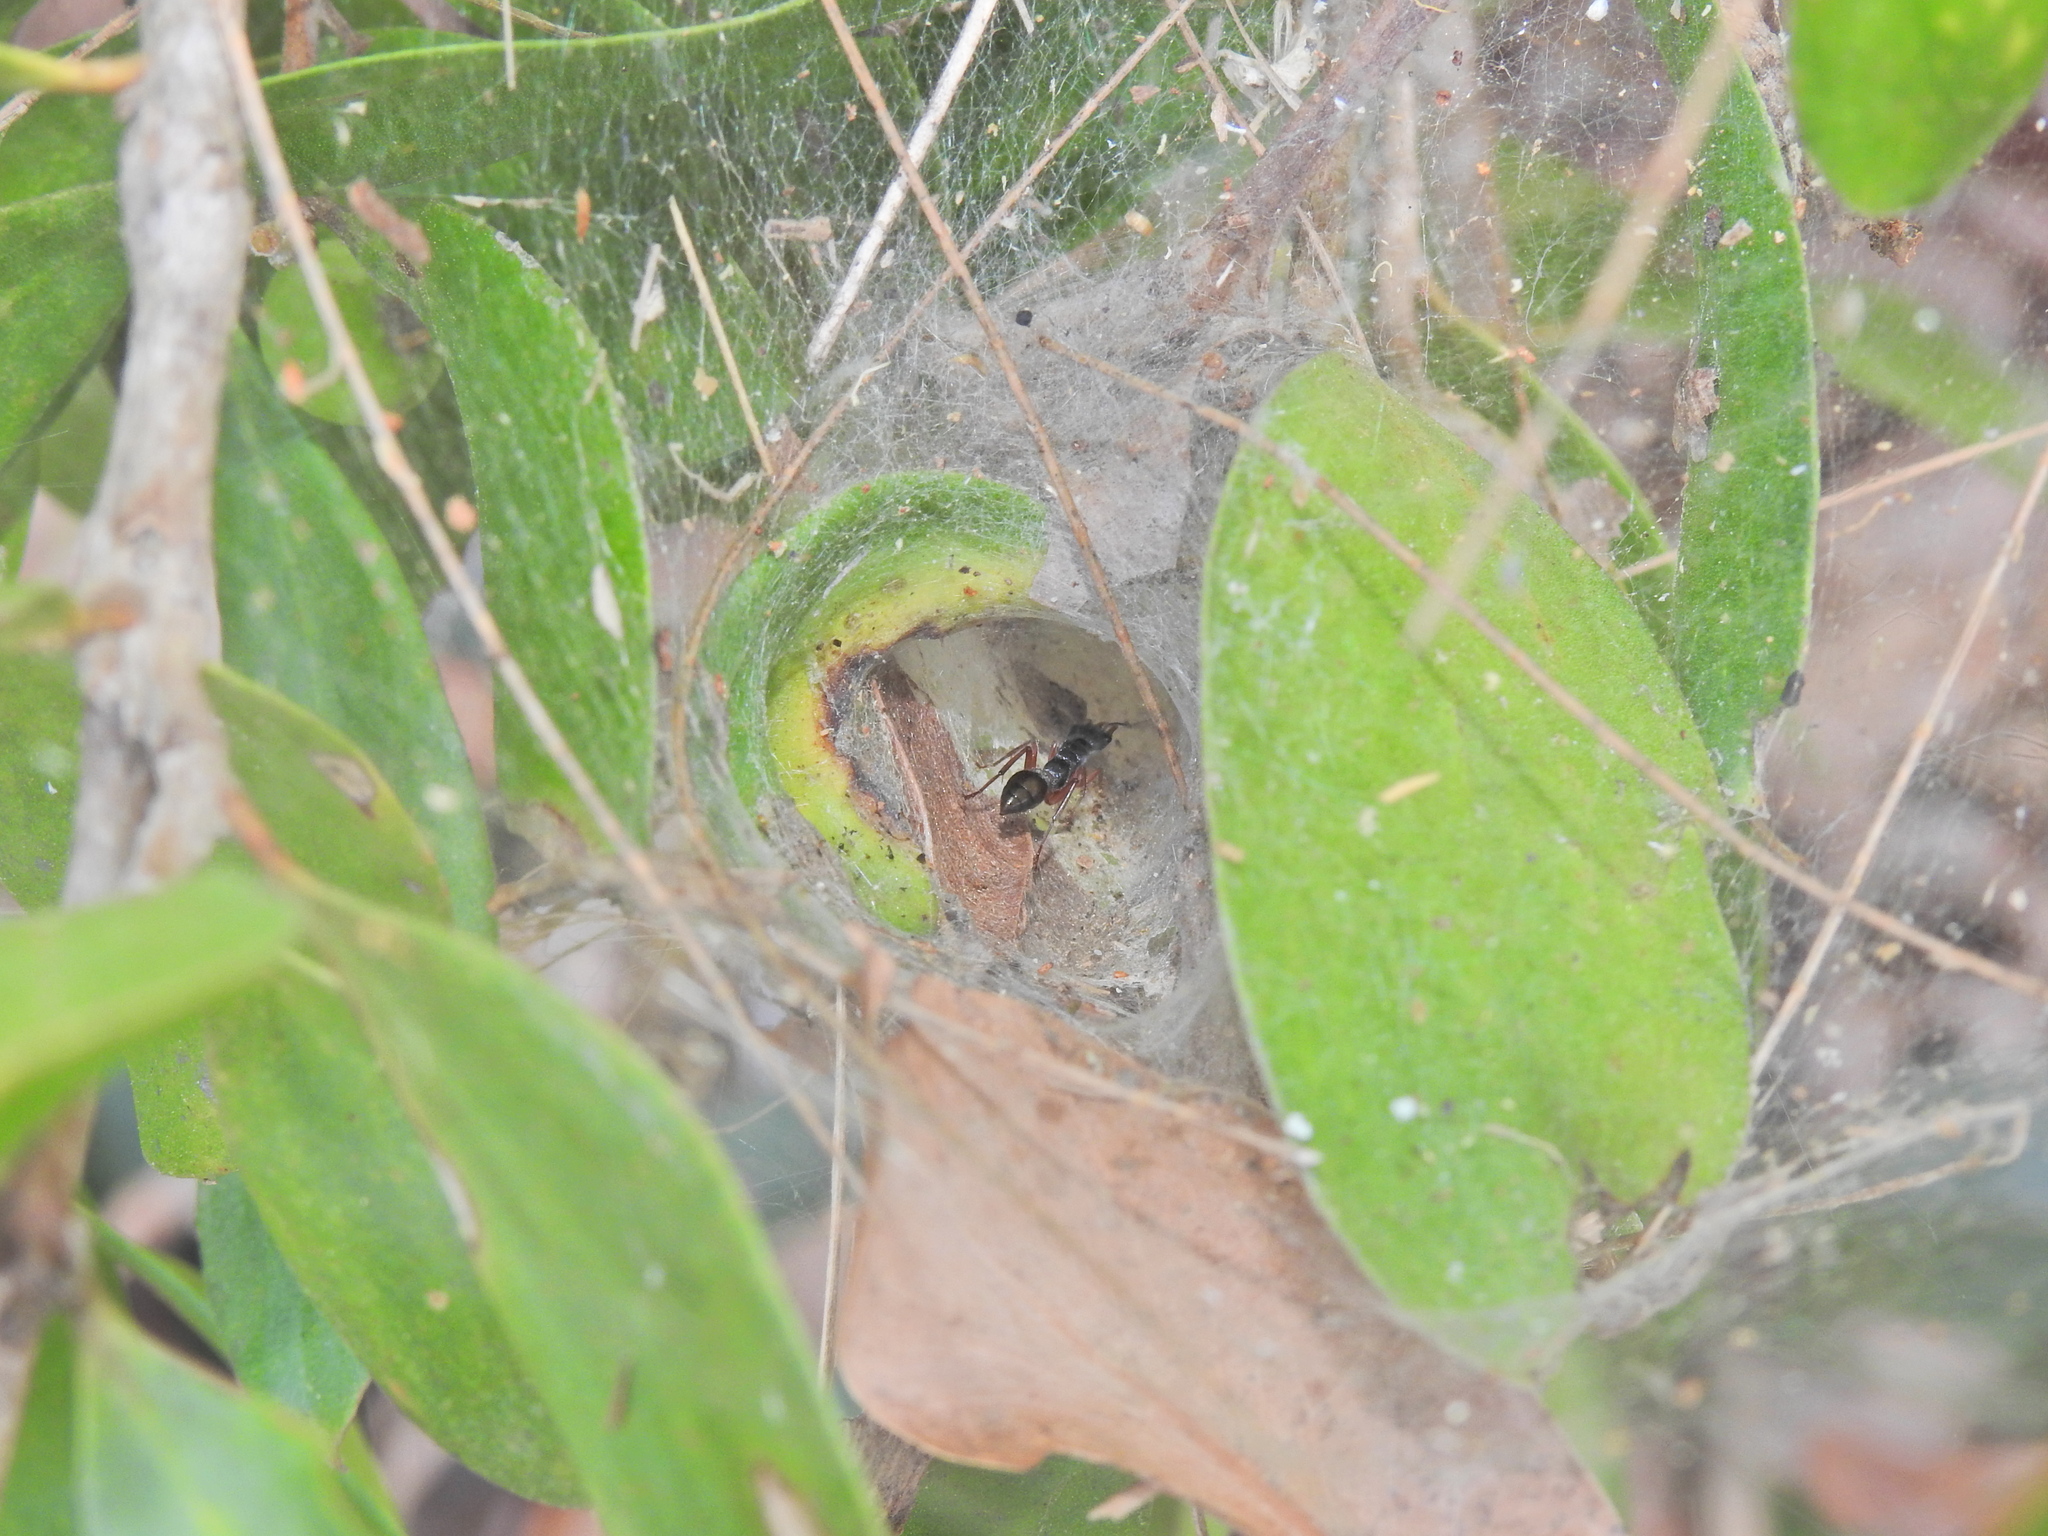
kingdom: Animalia
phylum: Arthropoda
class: Insecta
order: Hymenoptera
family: Formicidae
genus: Myrmecia
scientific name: Myrmecia chrysogaster
